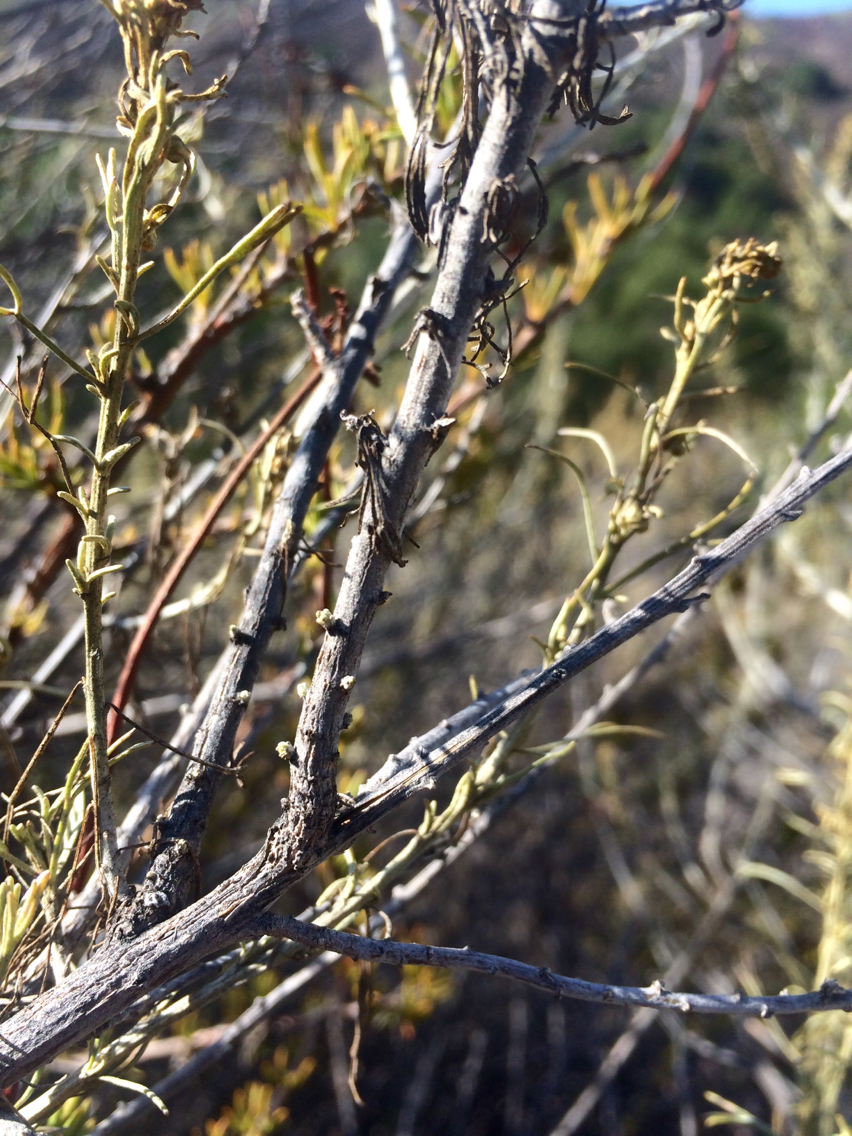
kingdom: Plantae
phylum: Tracheophyta
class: Magnoliopsida
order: Asterales
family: Asteraceae
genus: Artemisia
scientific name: Artemisia californica
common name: California sagebrush
